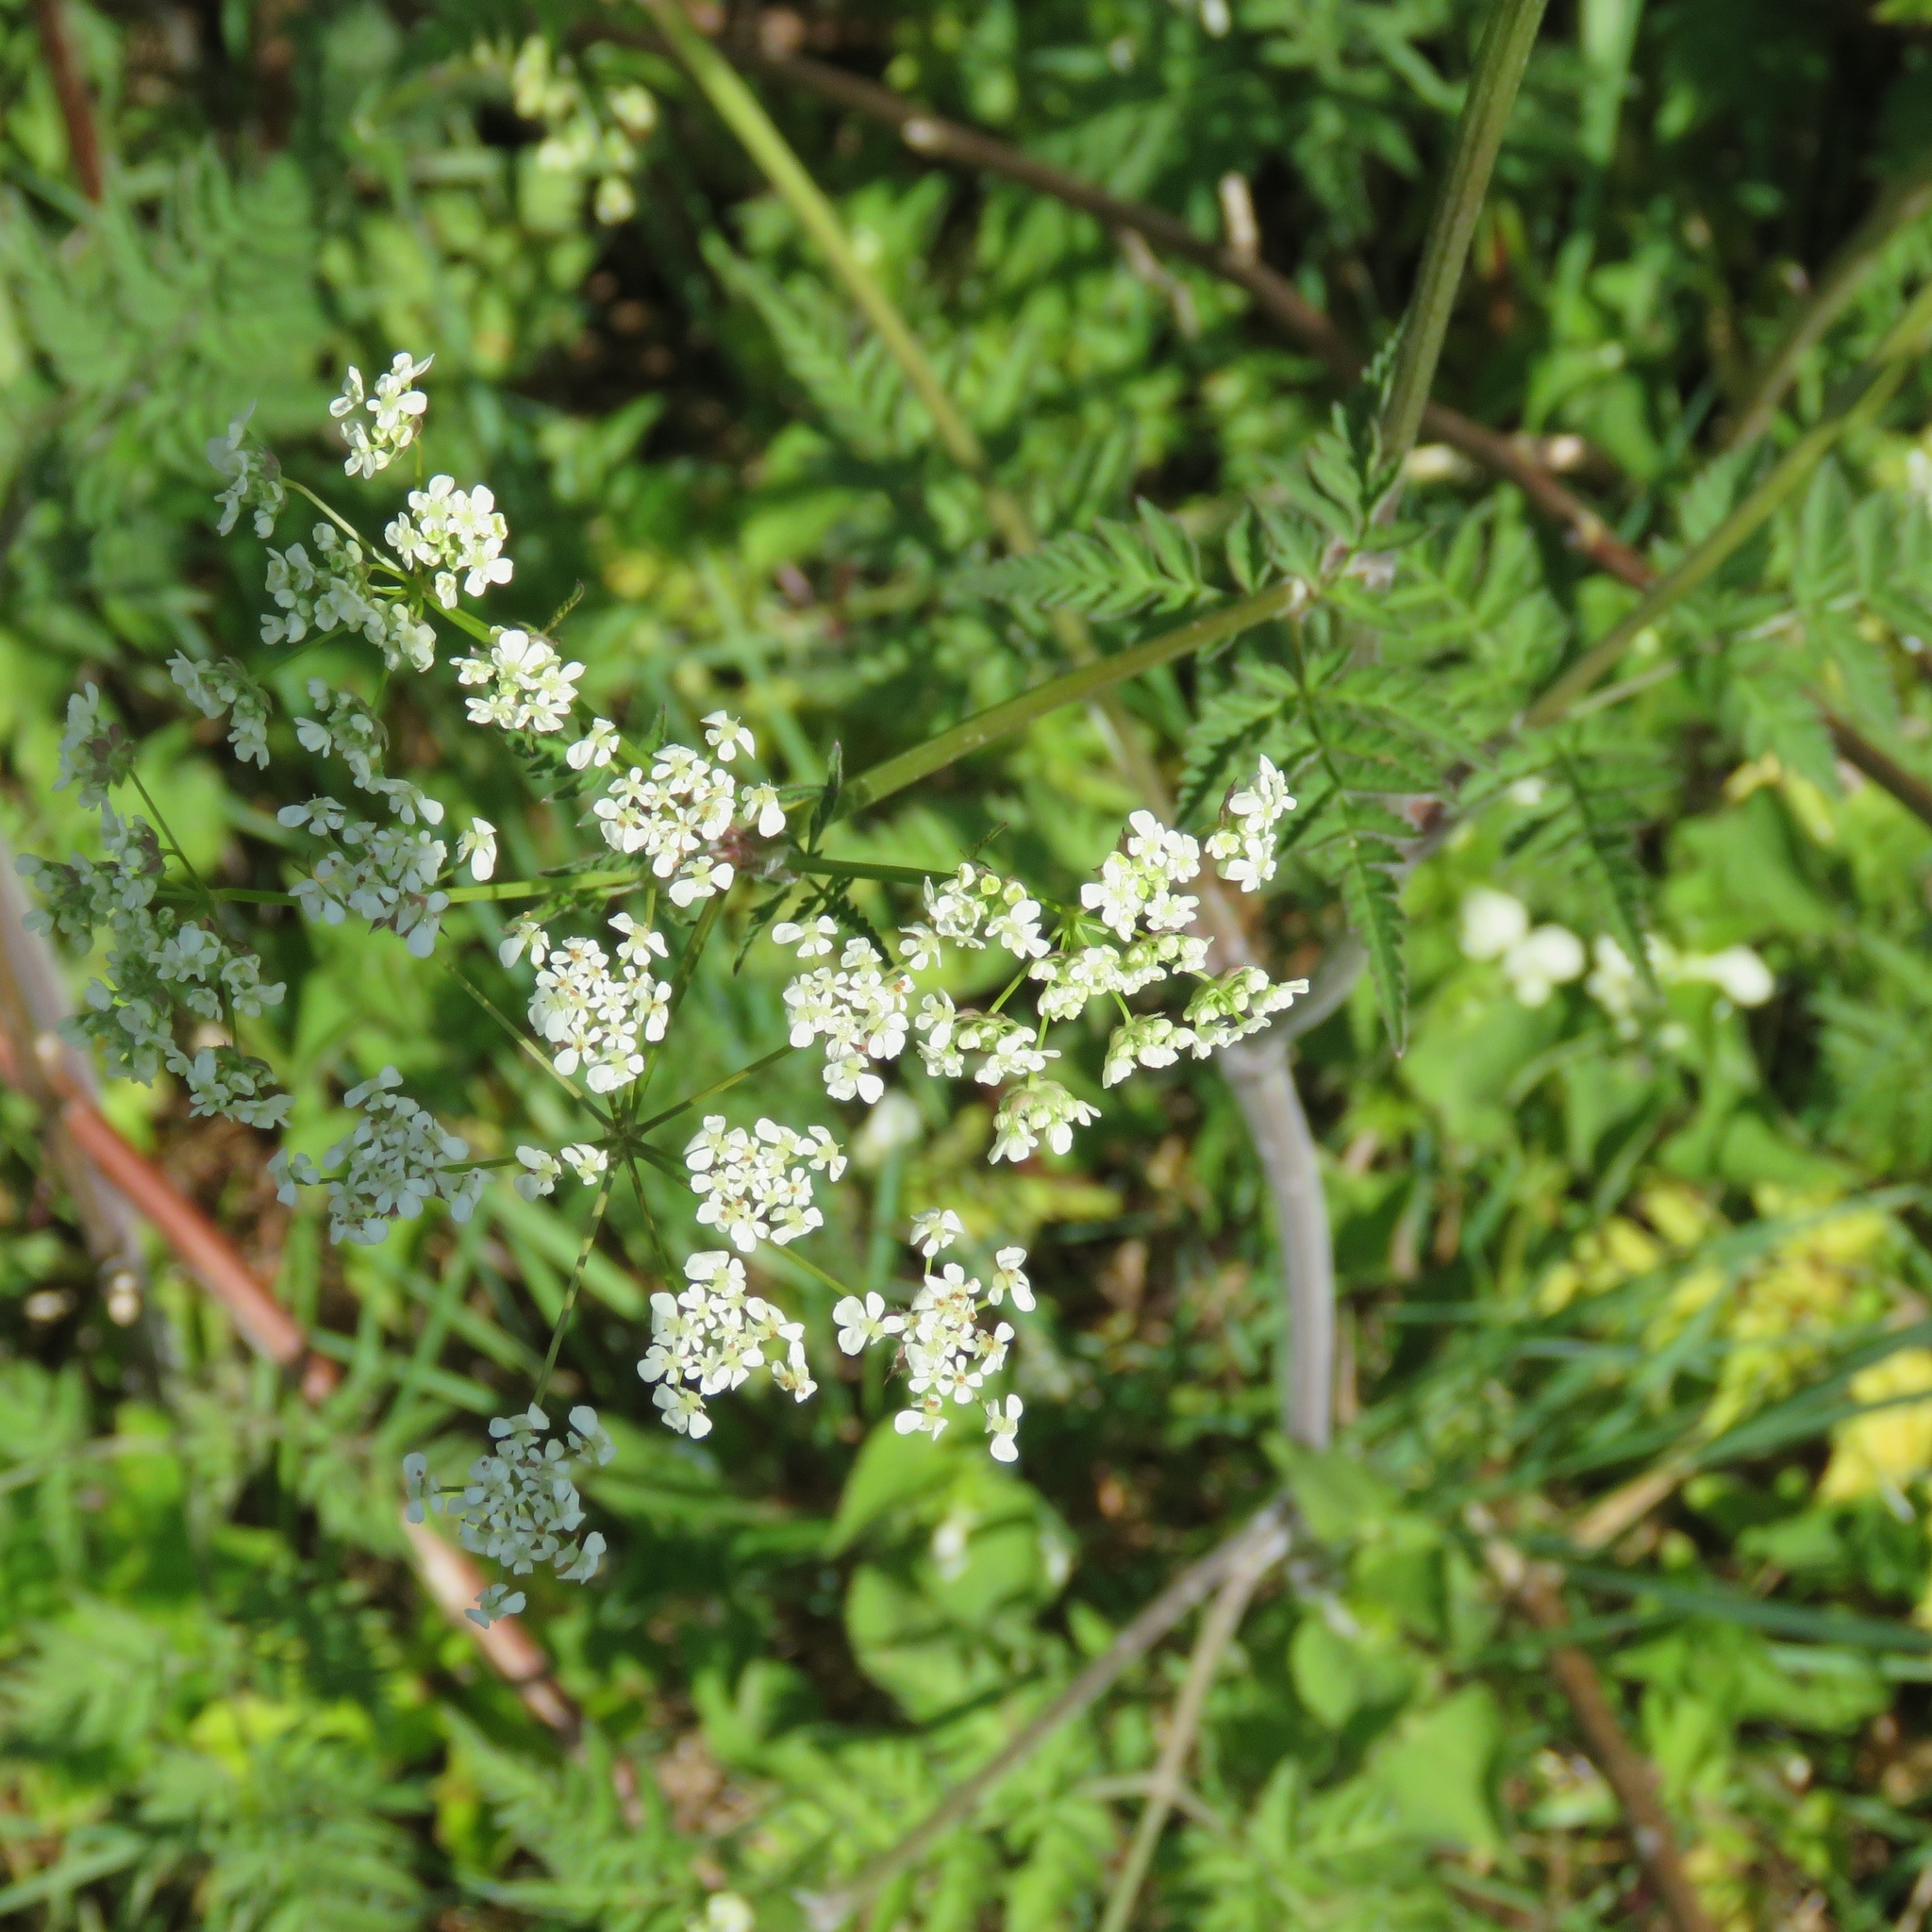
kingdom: Plantae
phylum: Tracheophyta
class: Magnoliopsida
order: Apiales
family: Apiaceae
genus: Anthriscus
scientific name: Anthriscus sylvestris
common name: Cow parsley
